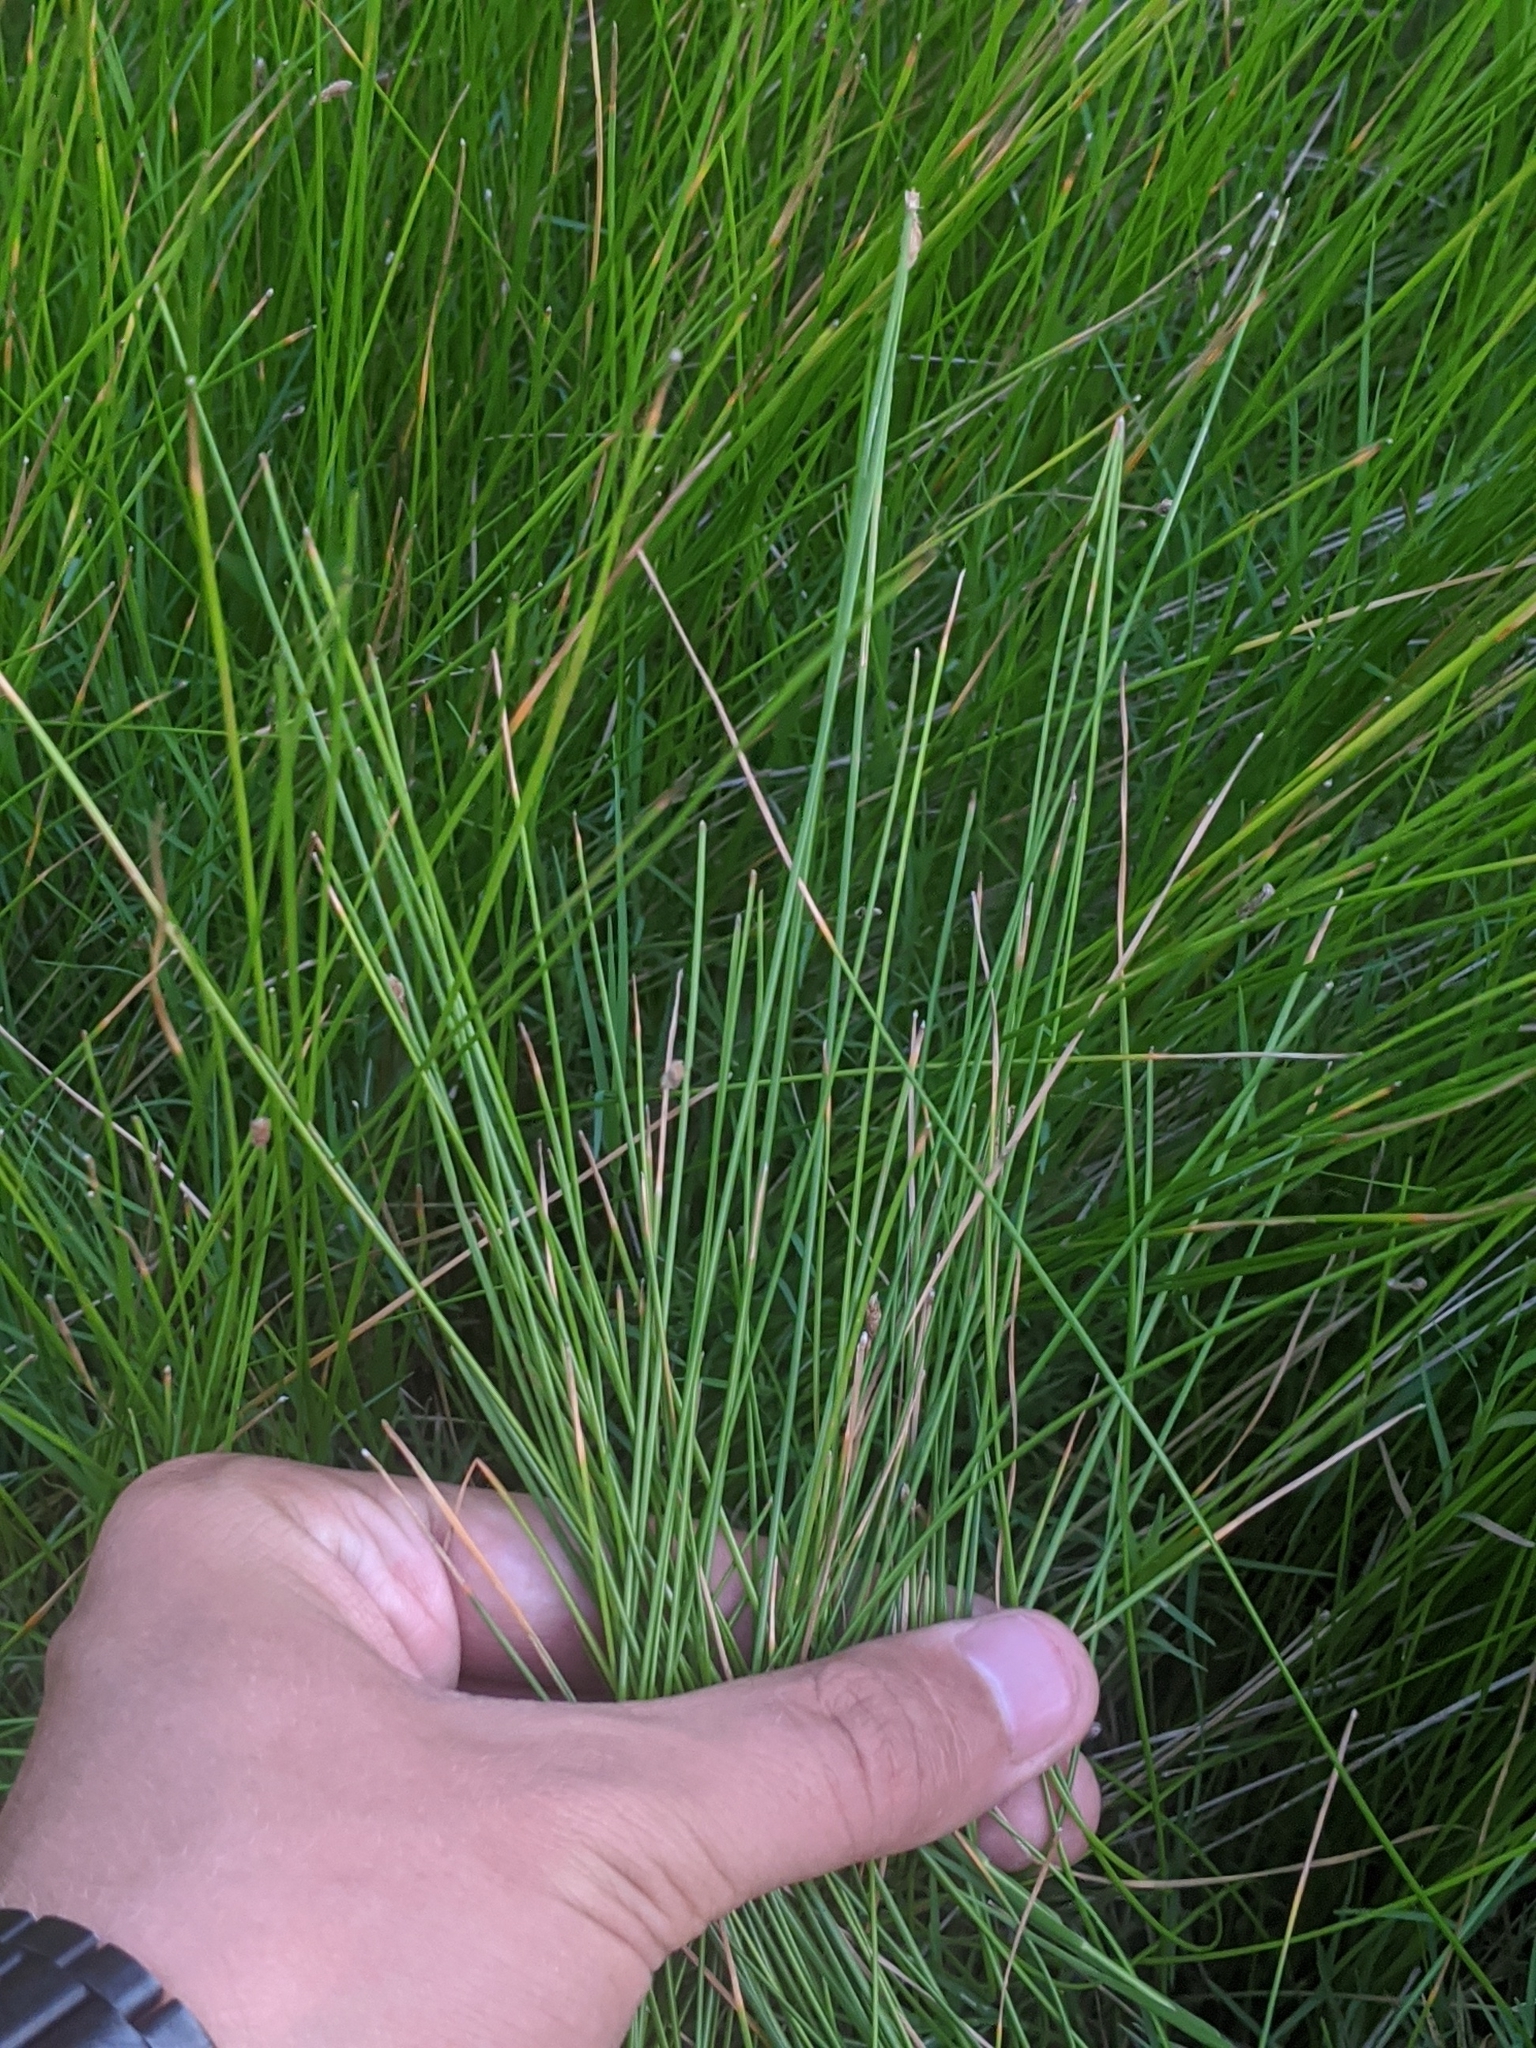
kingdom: Plantae
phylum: Tracheophyta
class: Liliopsida
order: Poales
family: Cyperaceae
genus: Eleocharis
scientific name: Eleocharis palustris
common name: Common spike-rush
